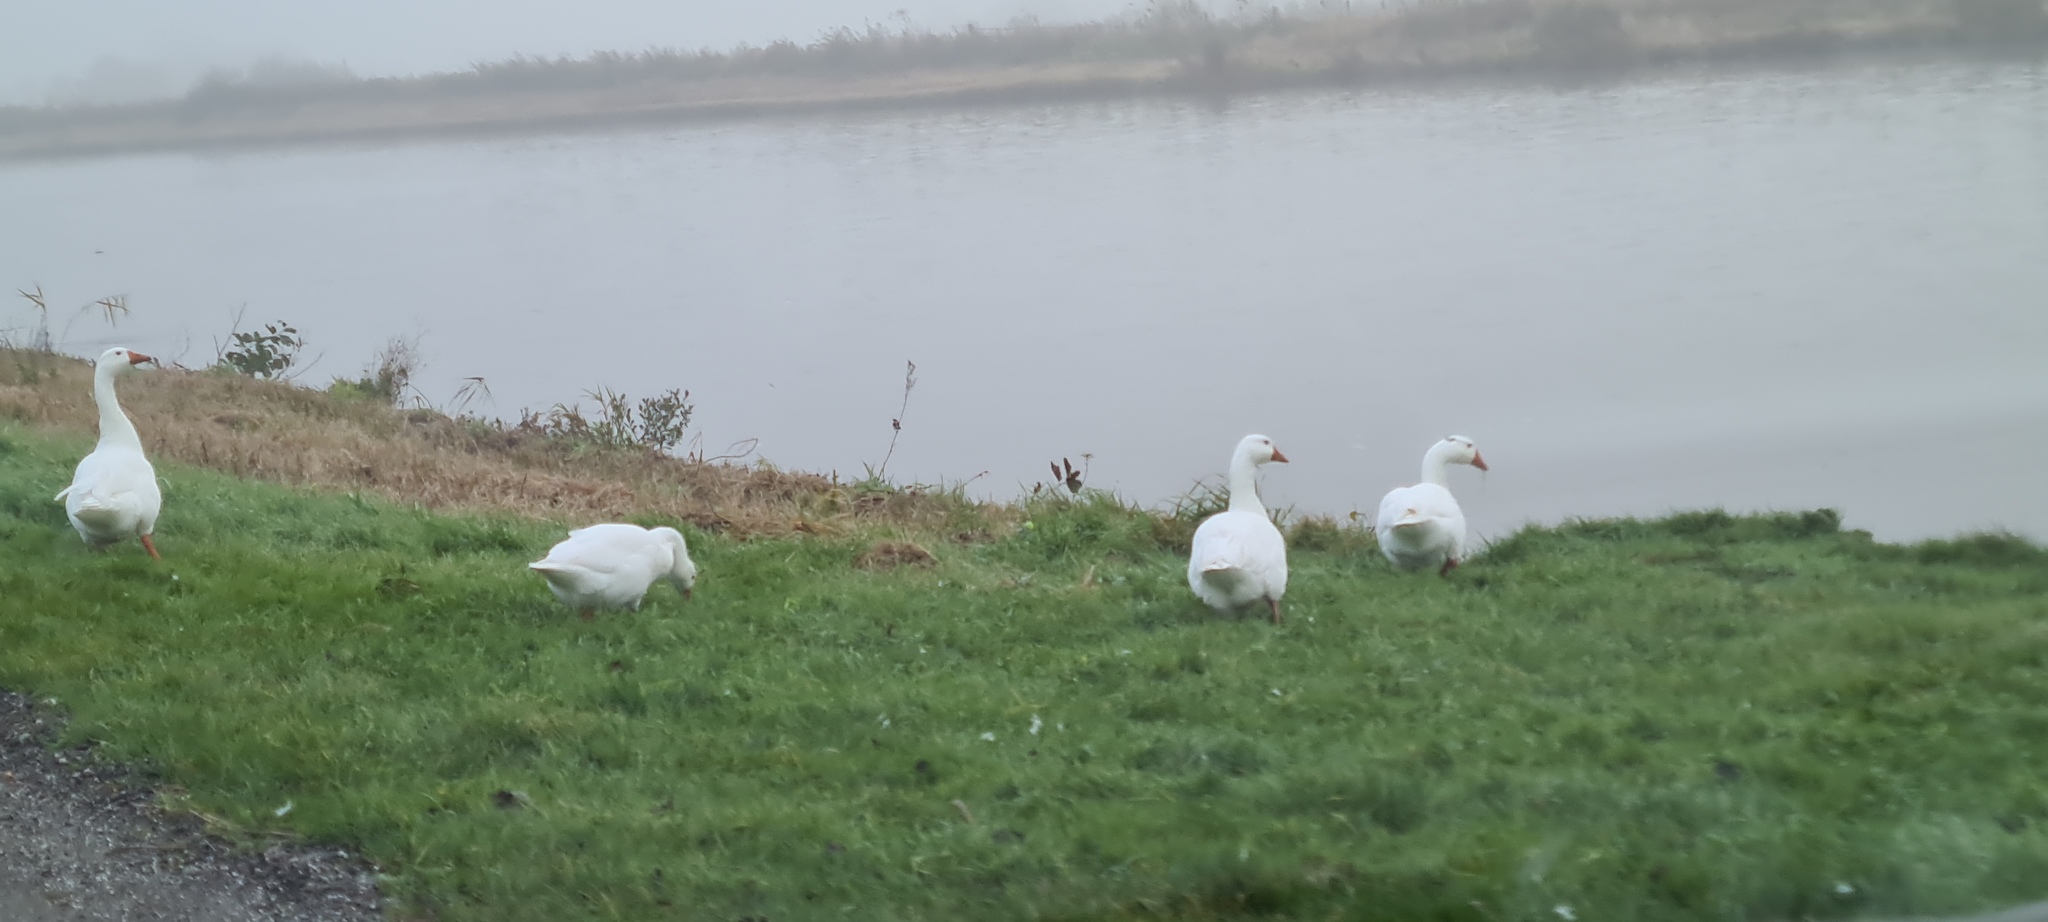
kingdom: Animalia
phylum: Chordata
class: Aves
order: Anseriformes
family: Anatidae
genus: Anser
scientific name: Anser anser
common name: Greylag goose
